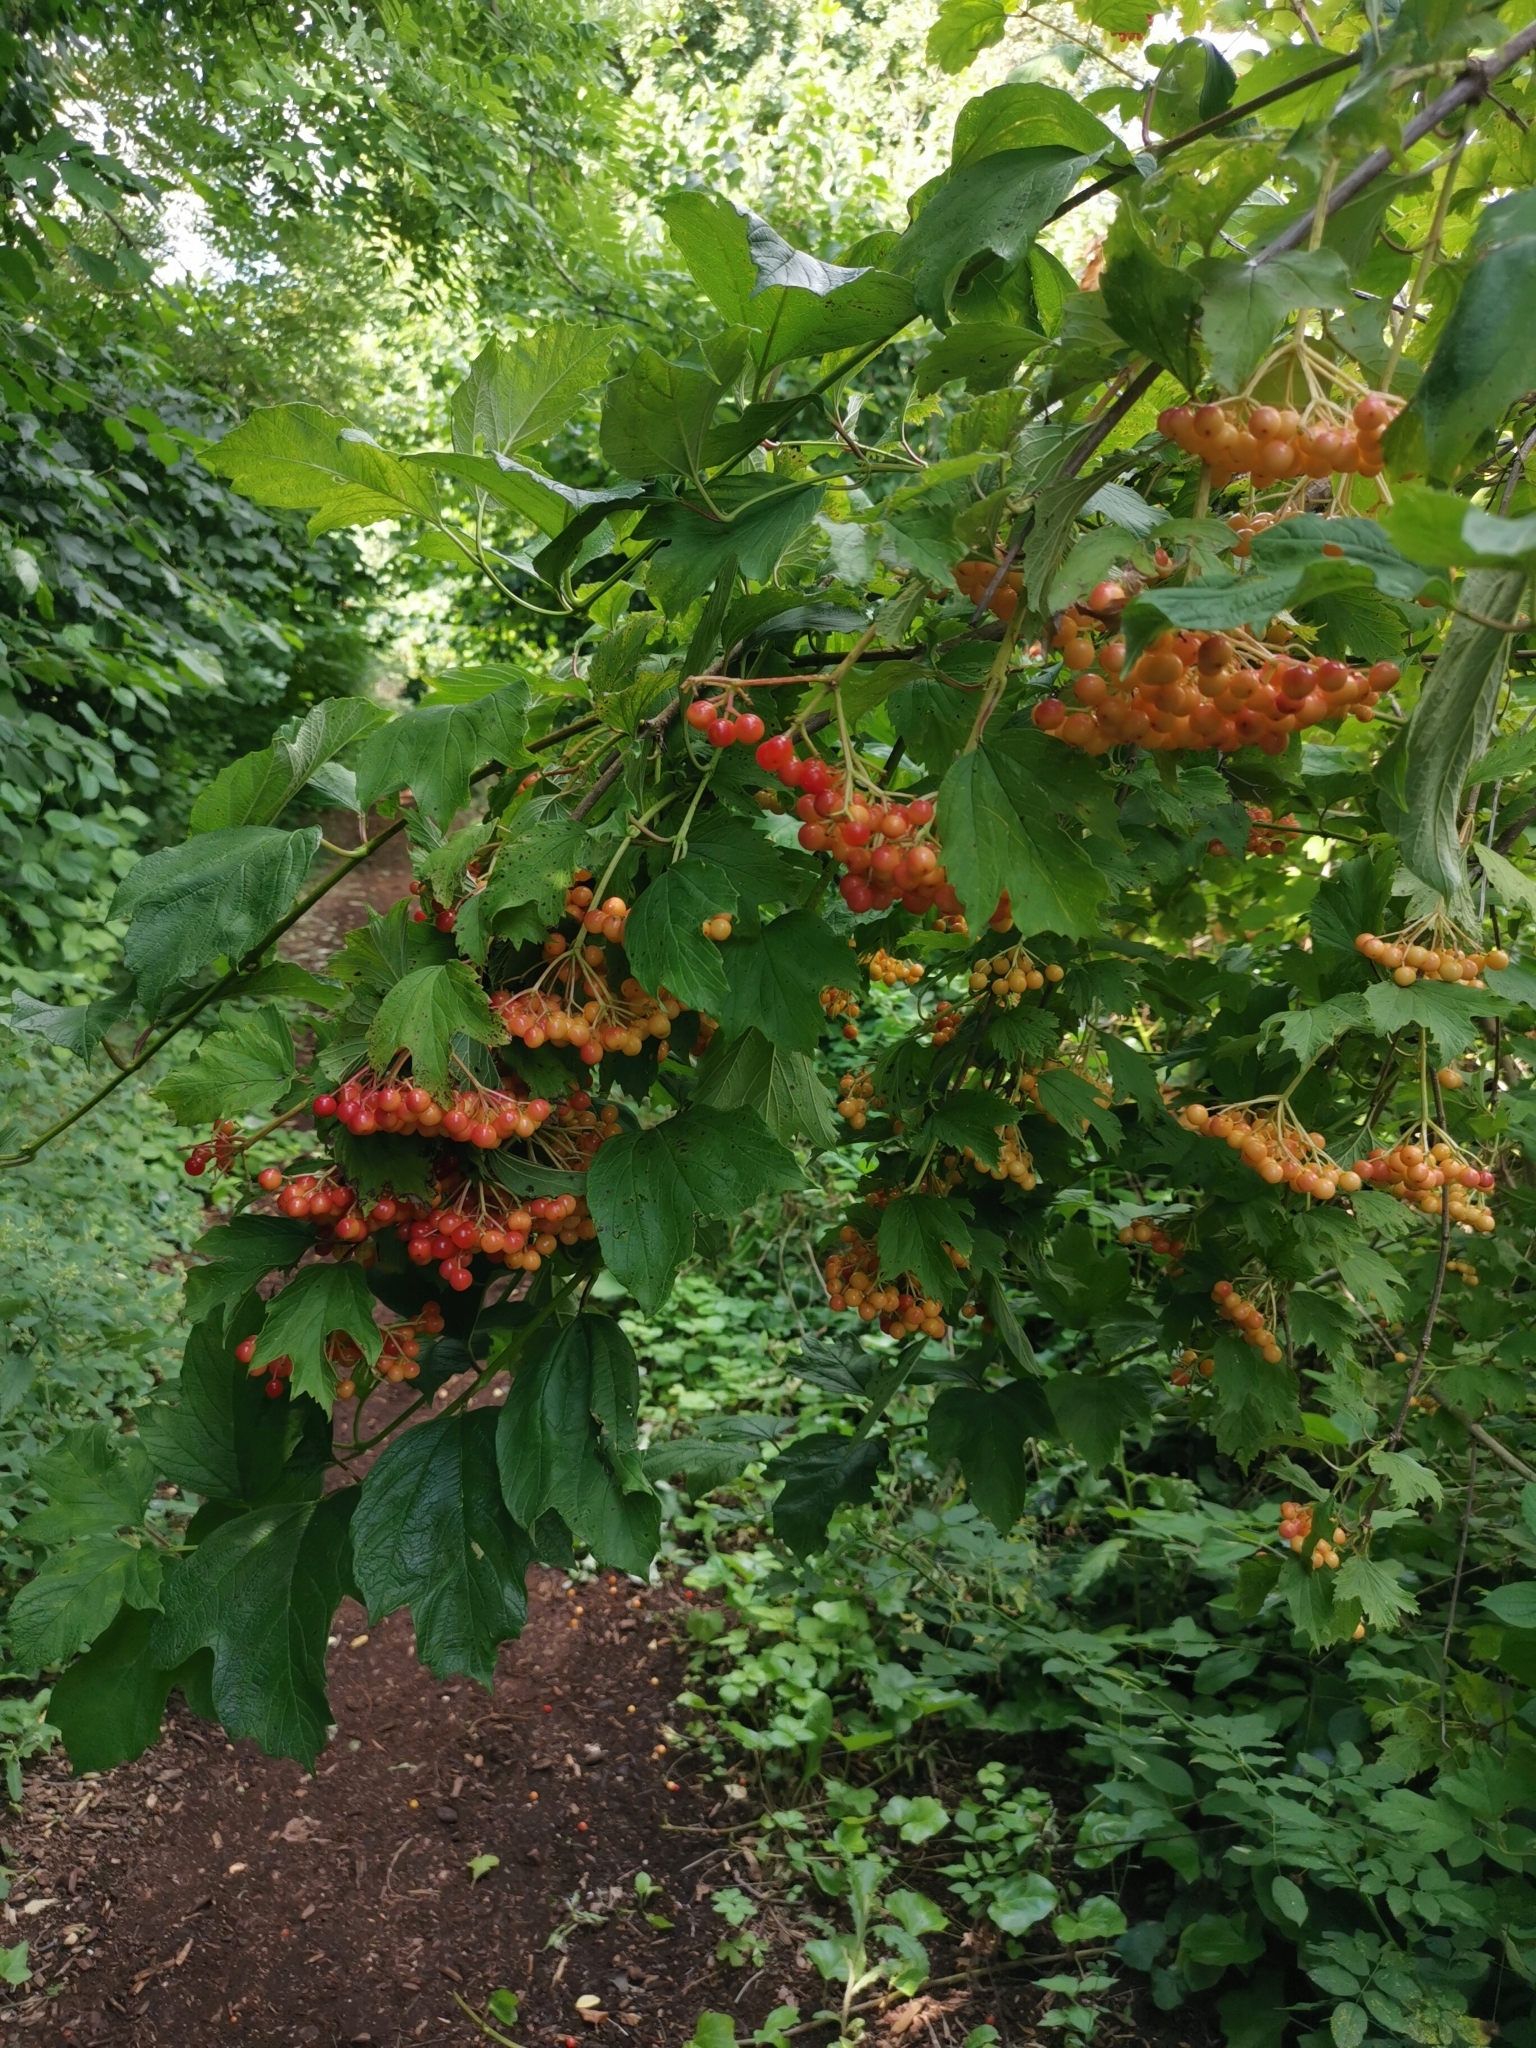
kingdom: Plantae
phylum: Tracheophyta
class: Magnoliopsida
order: Dipsacales
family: Viburnaceae
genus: Viburnum
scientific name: Viburnum opulus
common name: Guelder-rose
